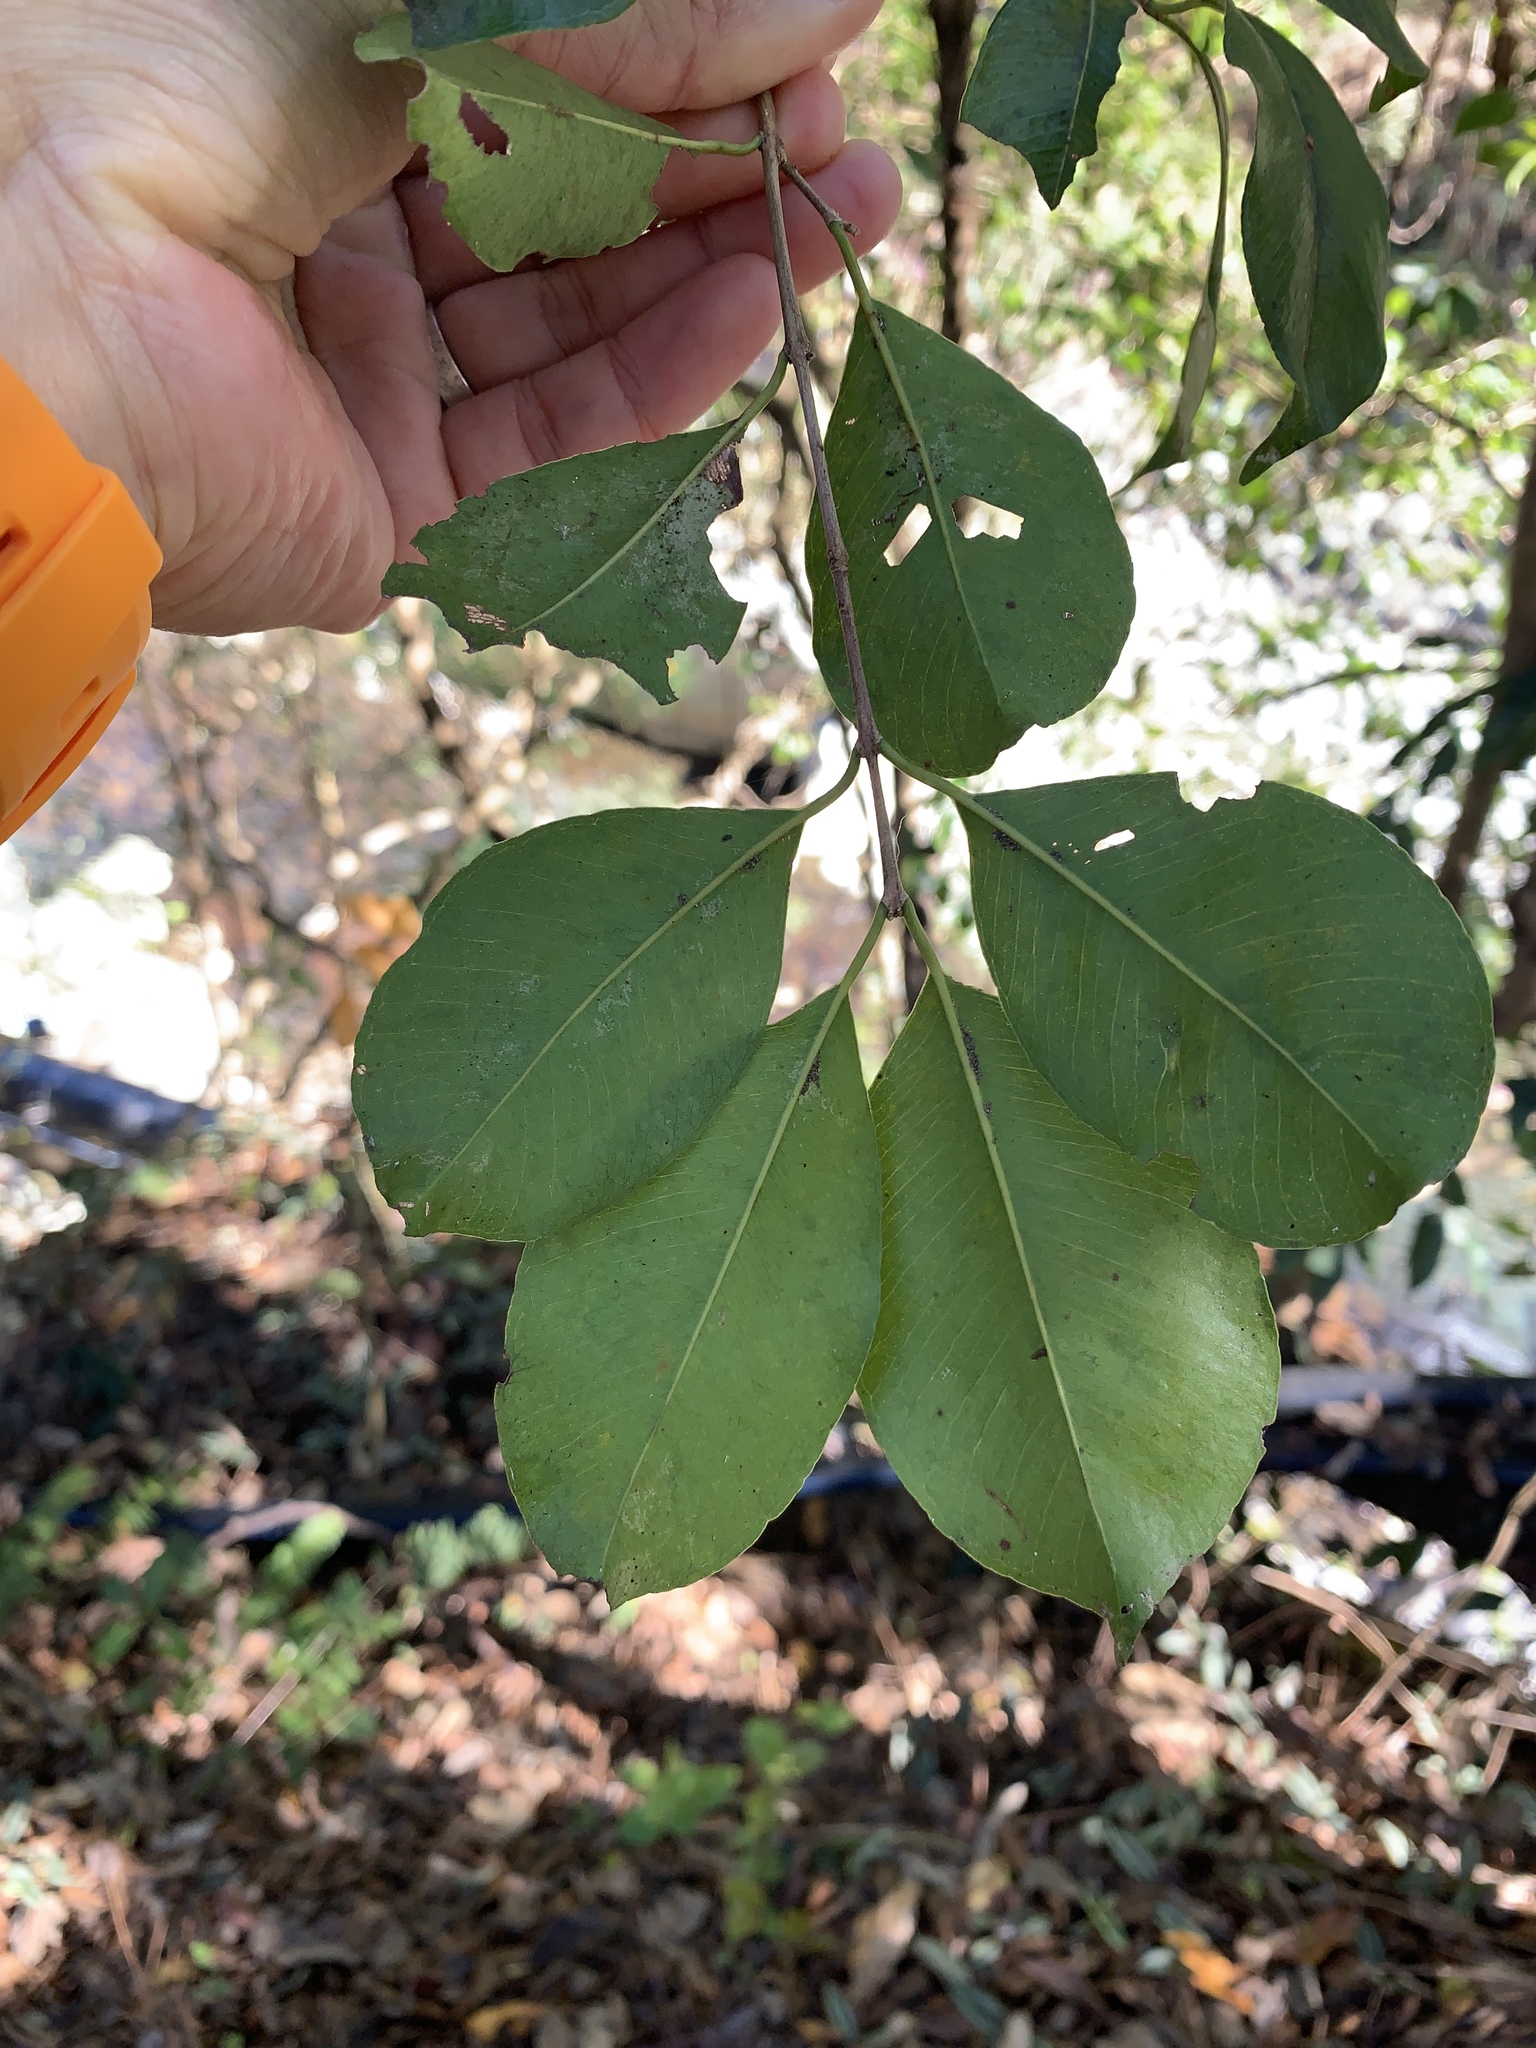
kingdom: Plantae
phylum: Tracheophyta
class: Magnoliopsida
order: Myrtales
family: Myrtaceae
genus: Syzygium
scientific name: Syzygium formosanum
